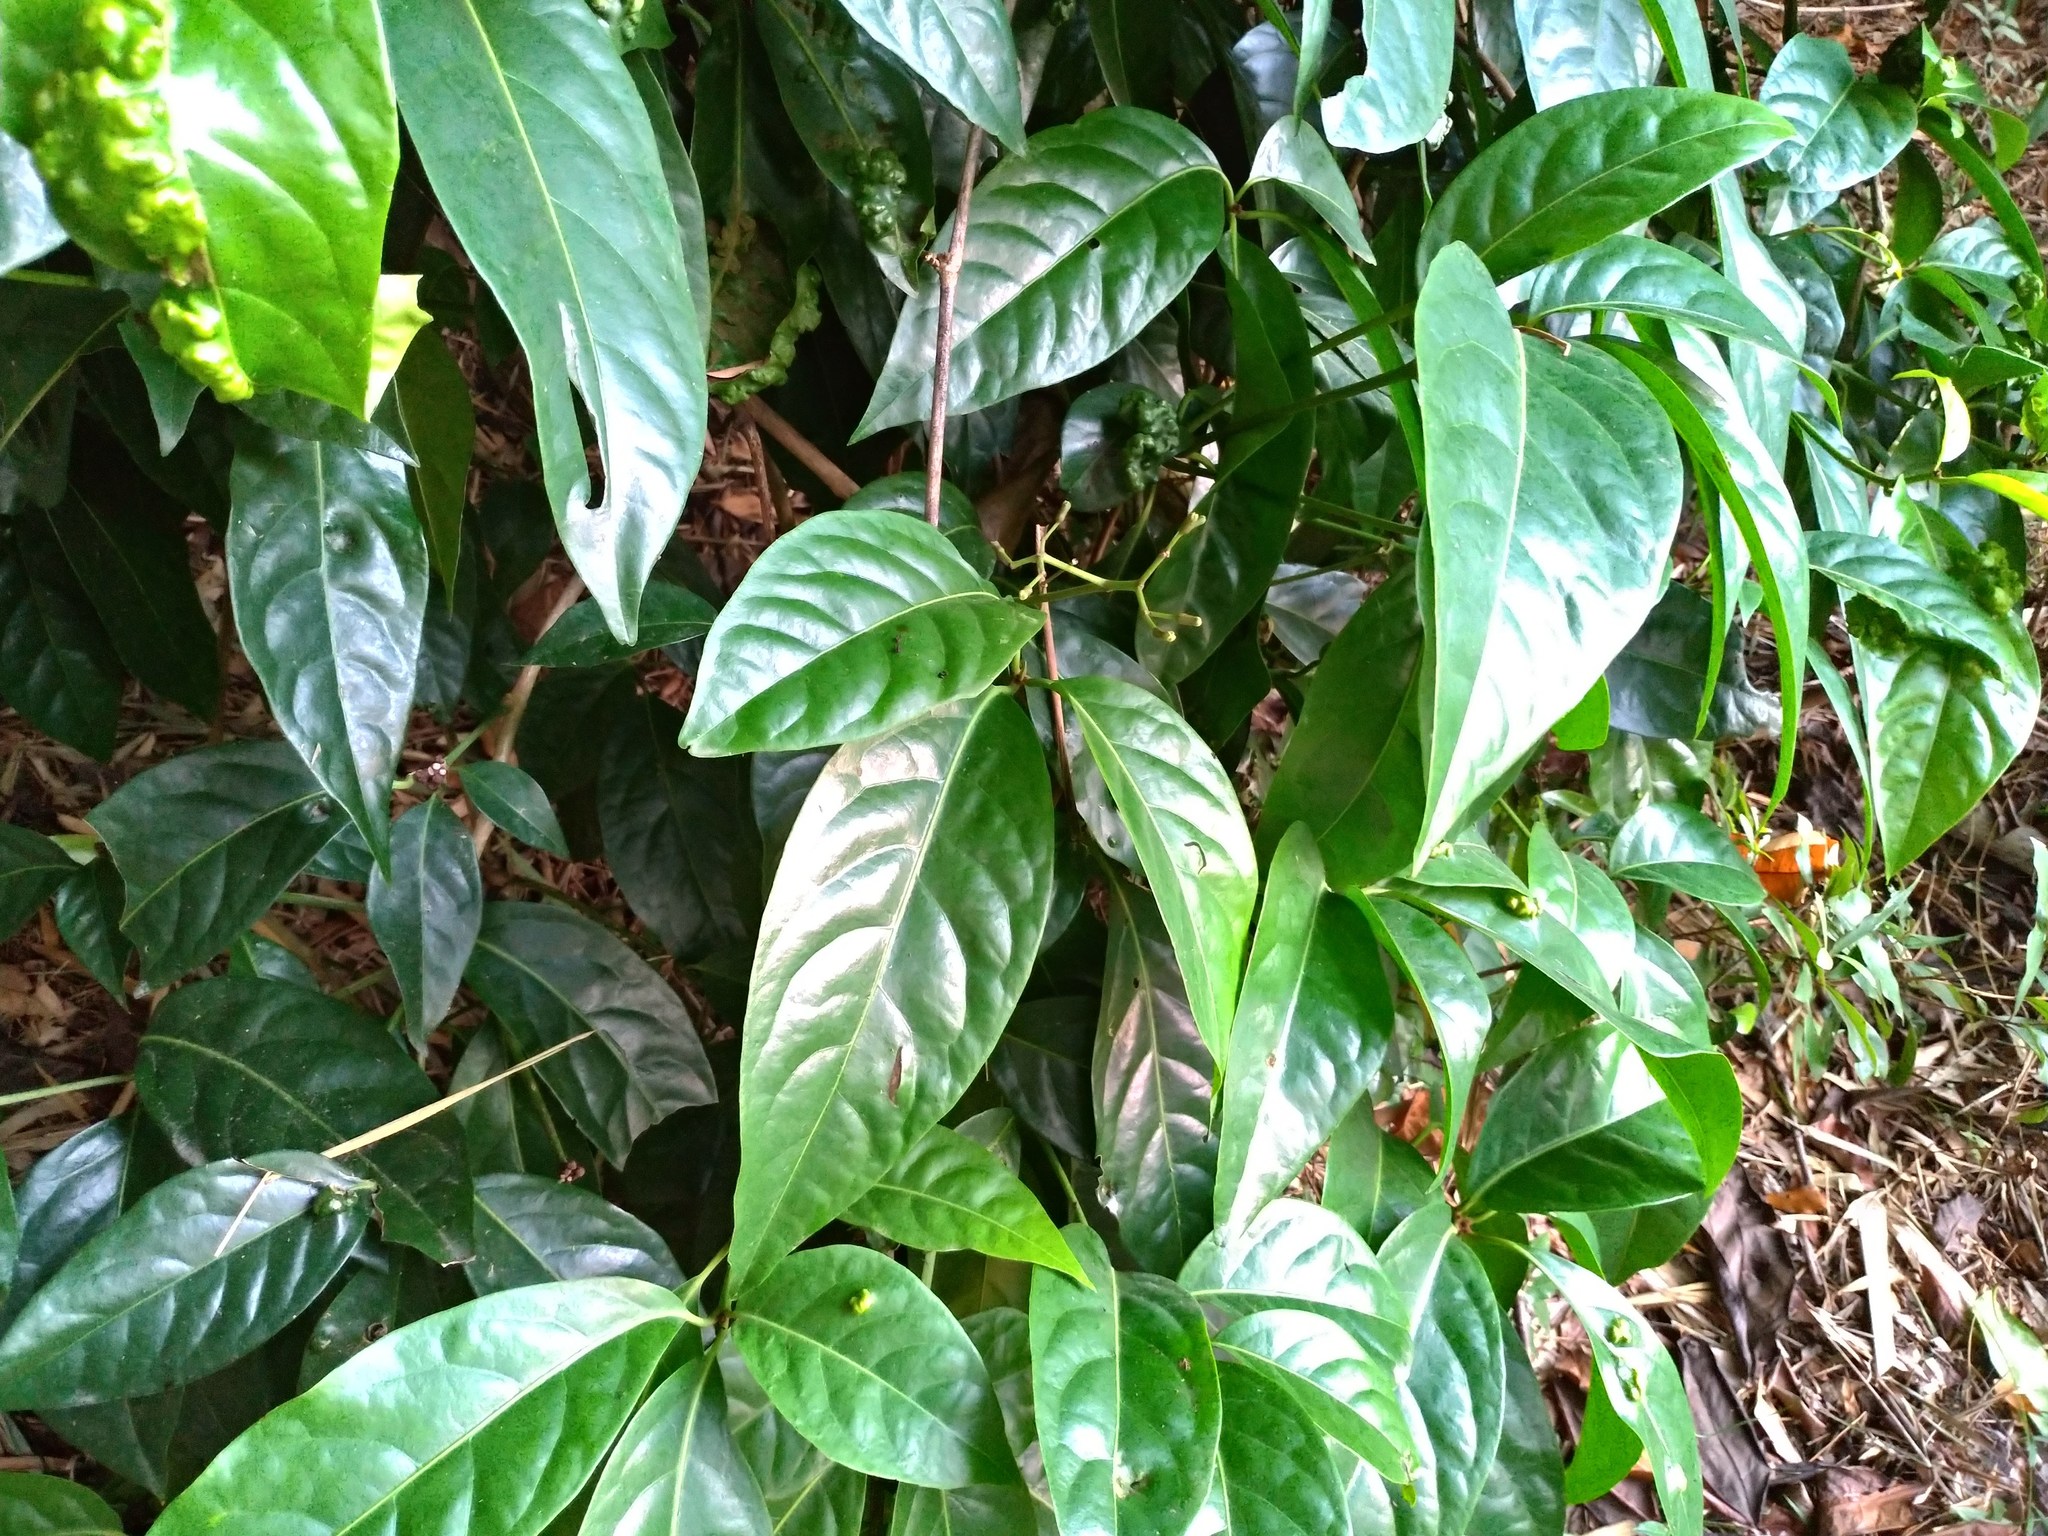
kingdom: Plantae
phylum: Tracheophyta
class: Magnoliopsida
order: Caryophyllales
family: Nyctaginaceae
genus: Ceodes
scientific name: Ceodes umbellifera
